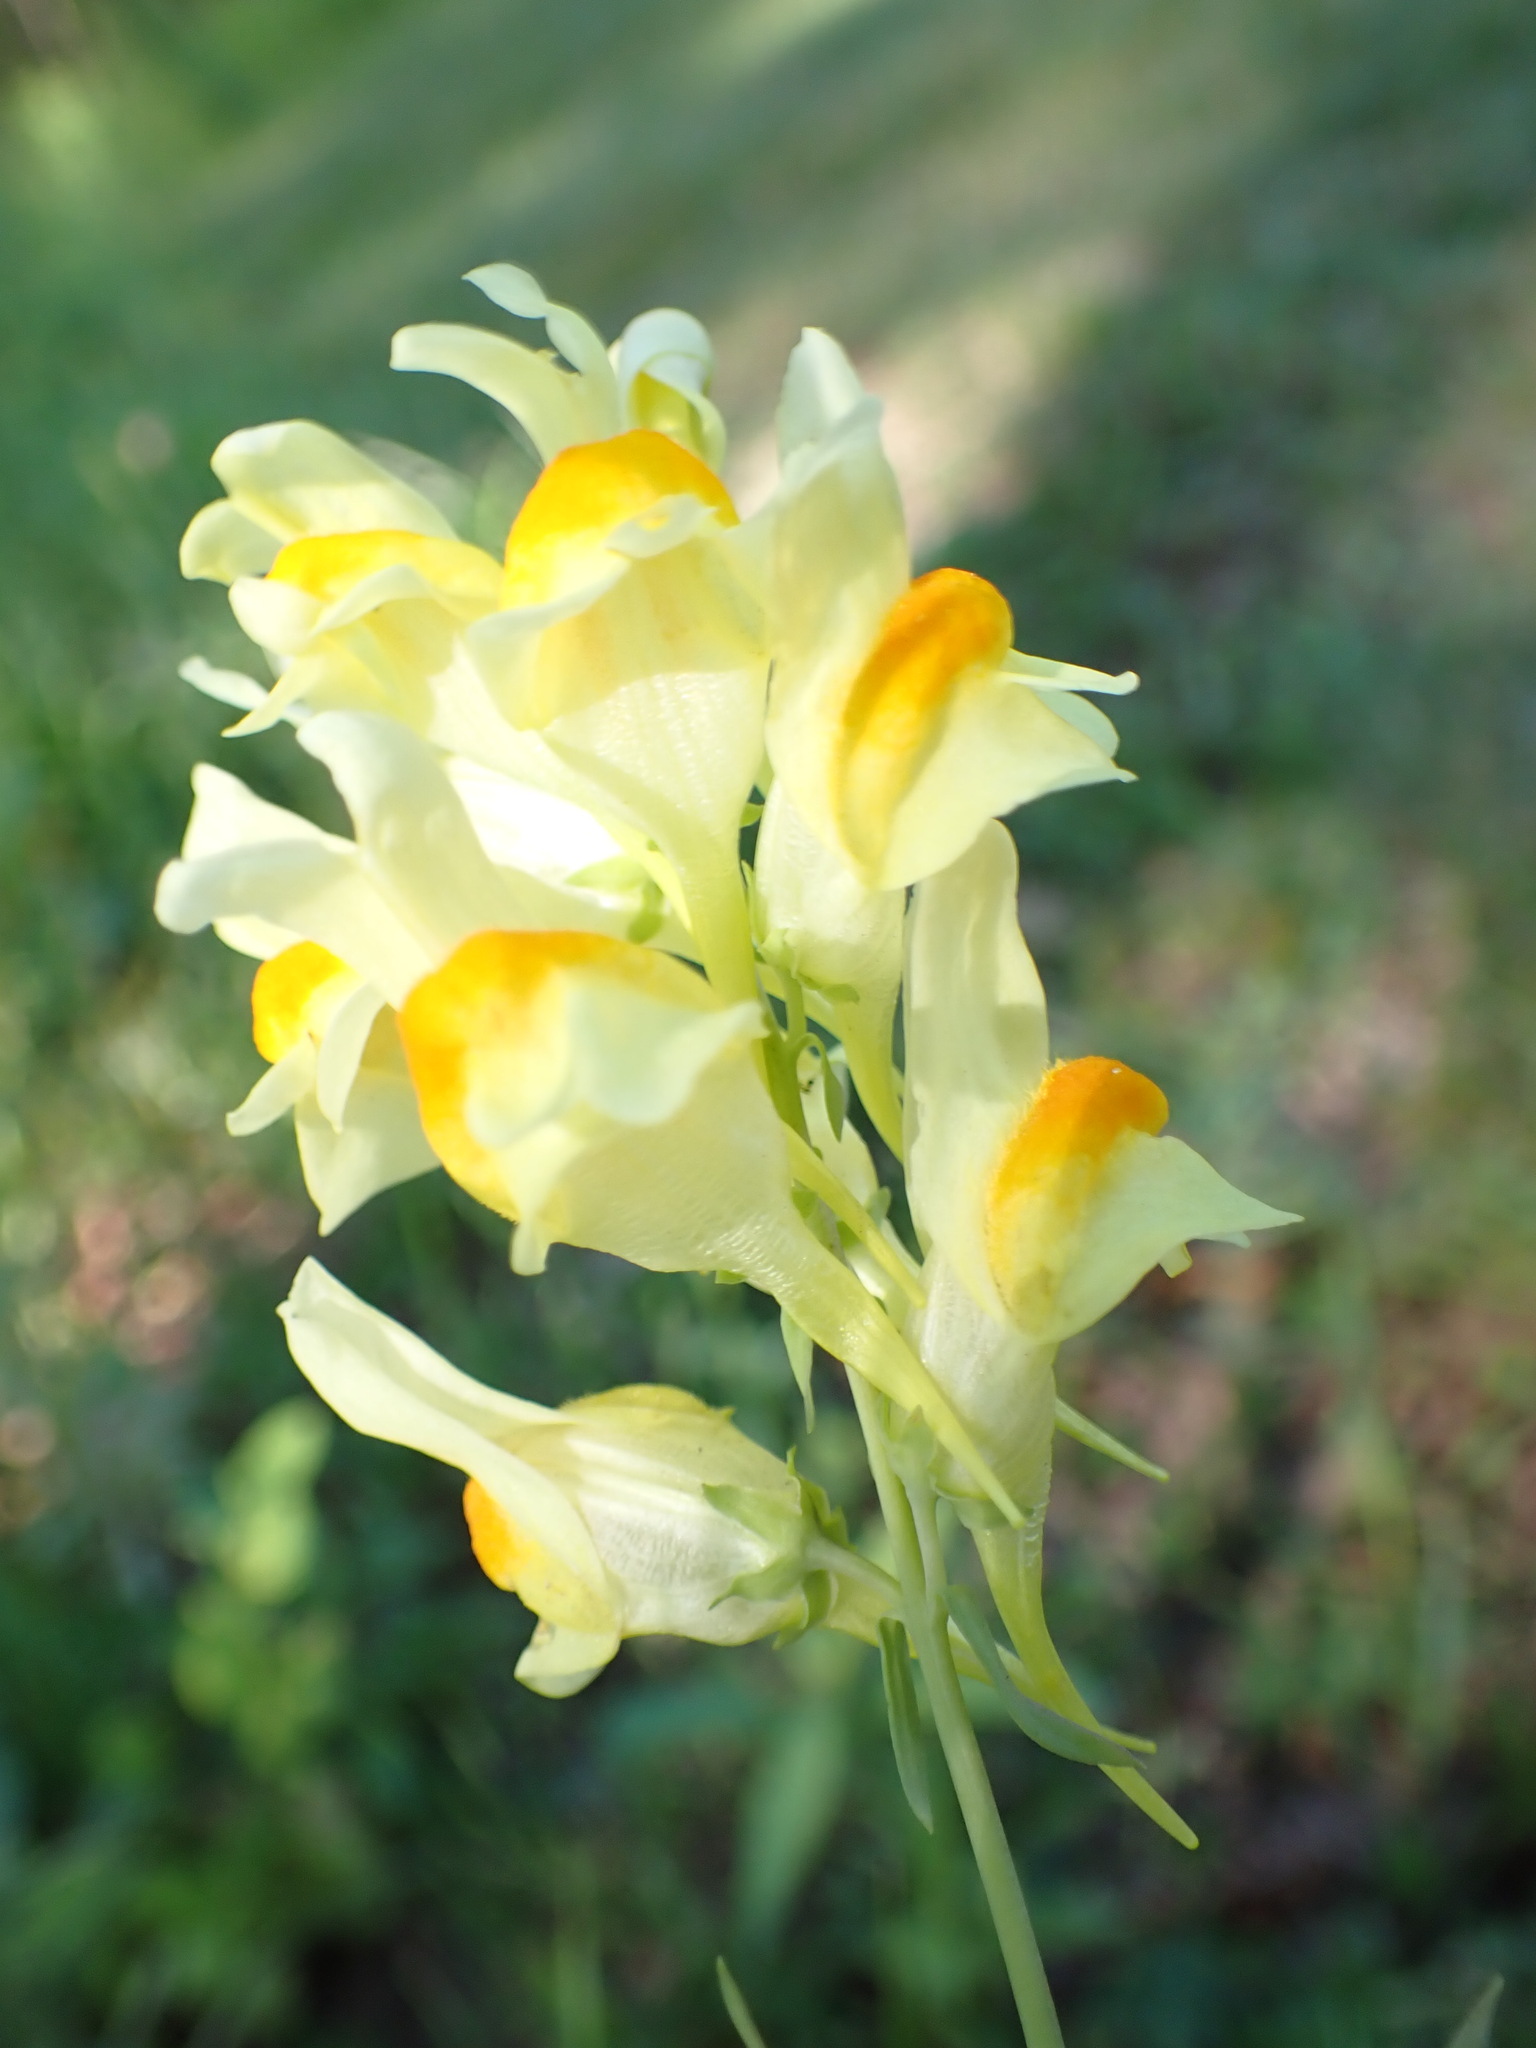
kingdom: Plantae
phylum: Tracheophyta
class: Magnoliopsida
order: Lamiales
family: Plantaginaceae
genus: Linaria
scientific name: Linaria vulgaris
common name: Butter and eggs
